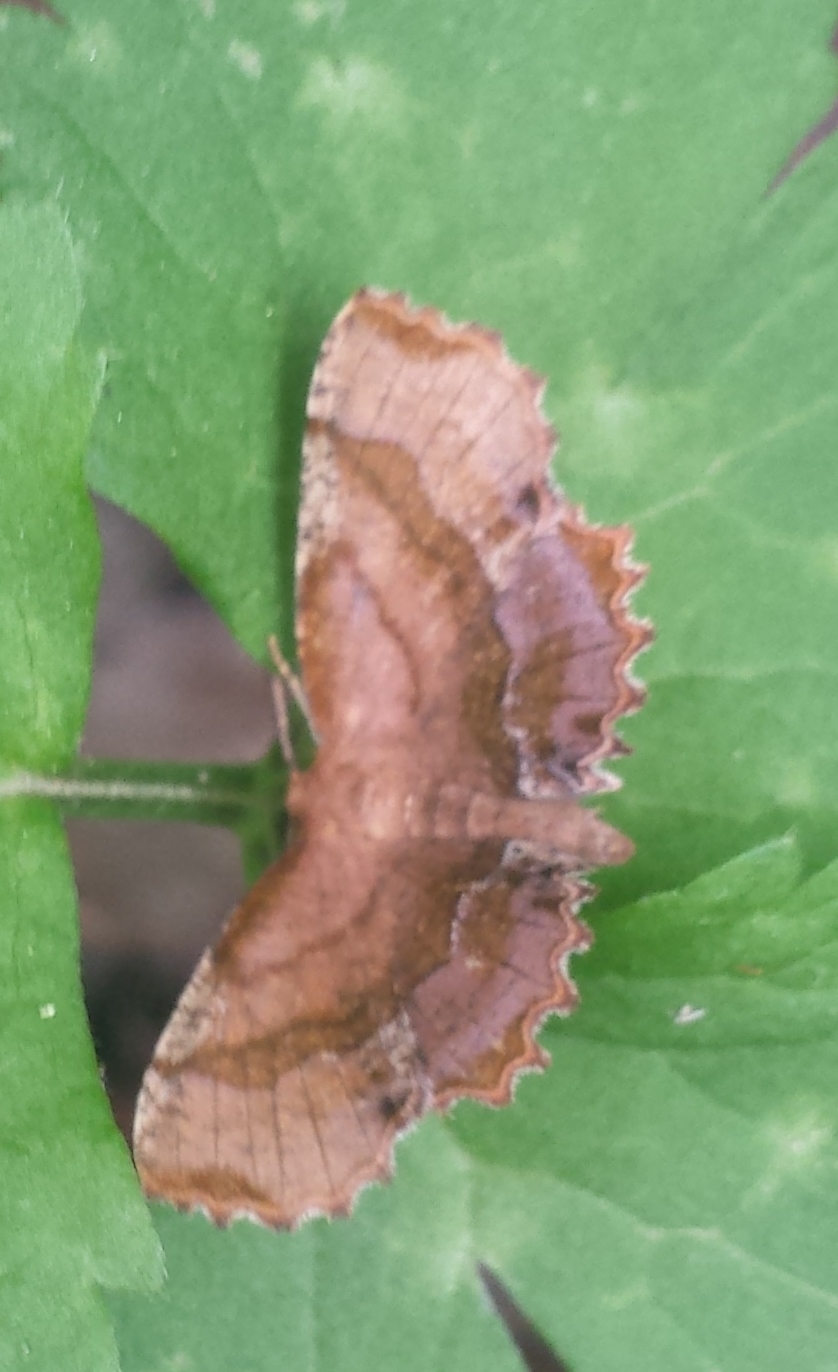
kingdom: Animalia
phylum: Arthropoda
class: Insecta
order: Lepidoptera
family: Geometridae
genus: Cepphis
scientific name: Cepphis armataria
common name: Scallop moth
